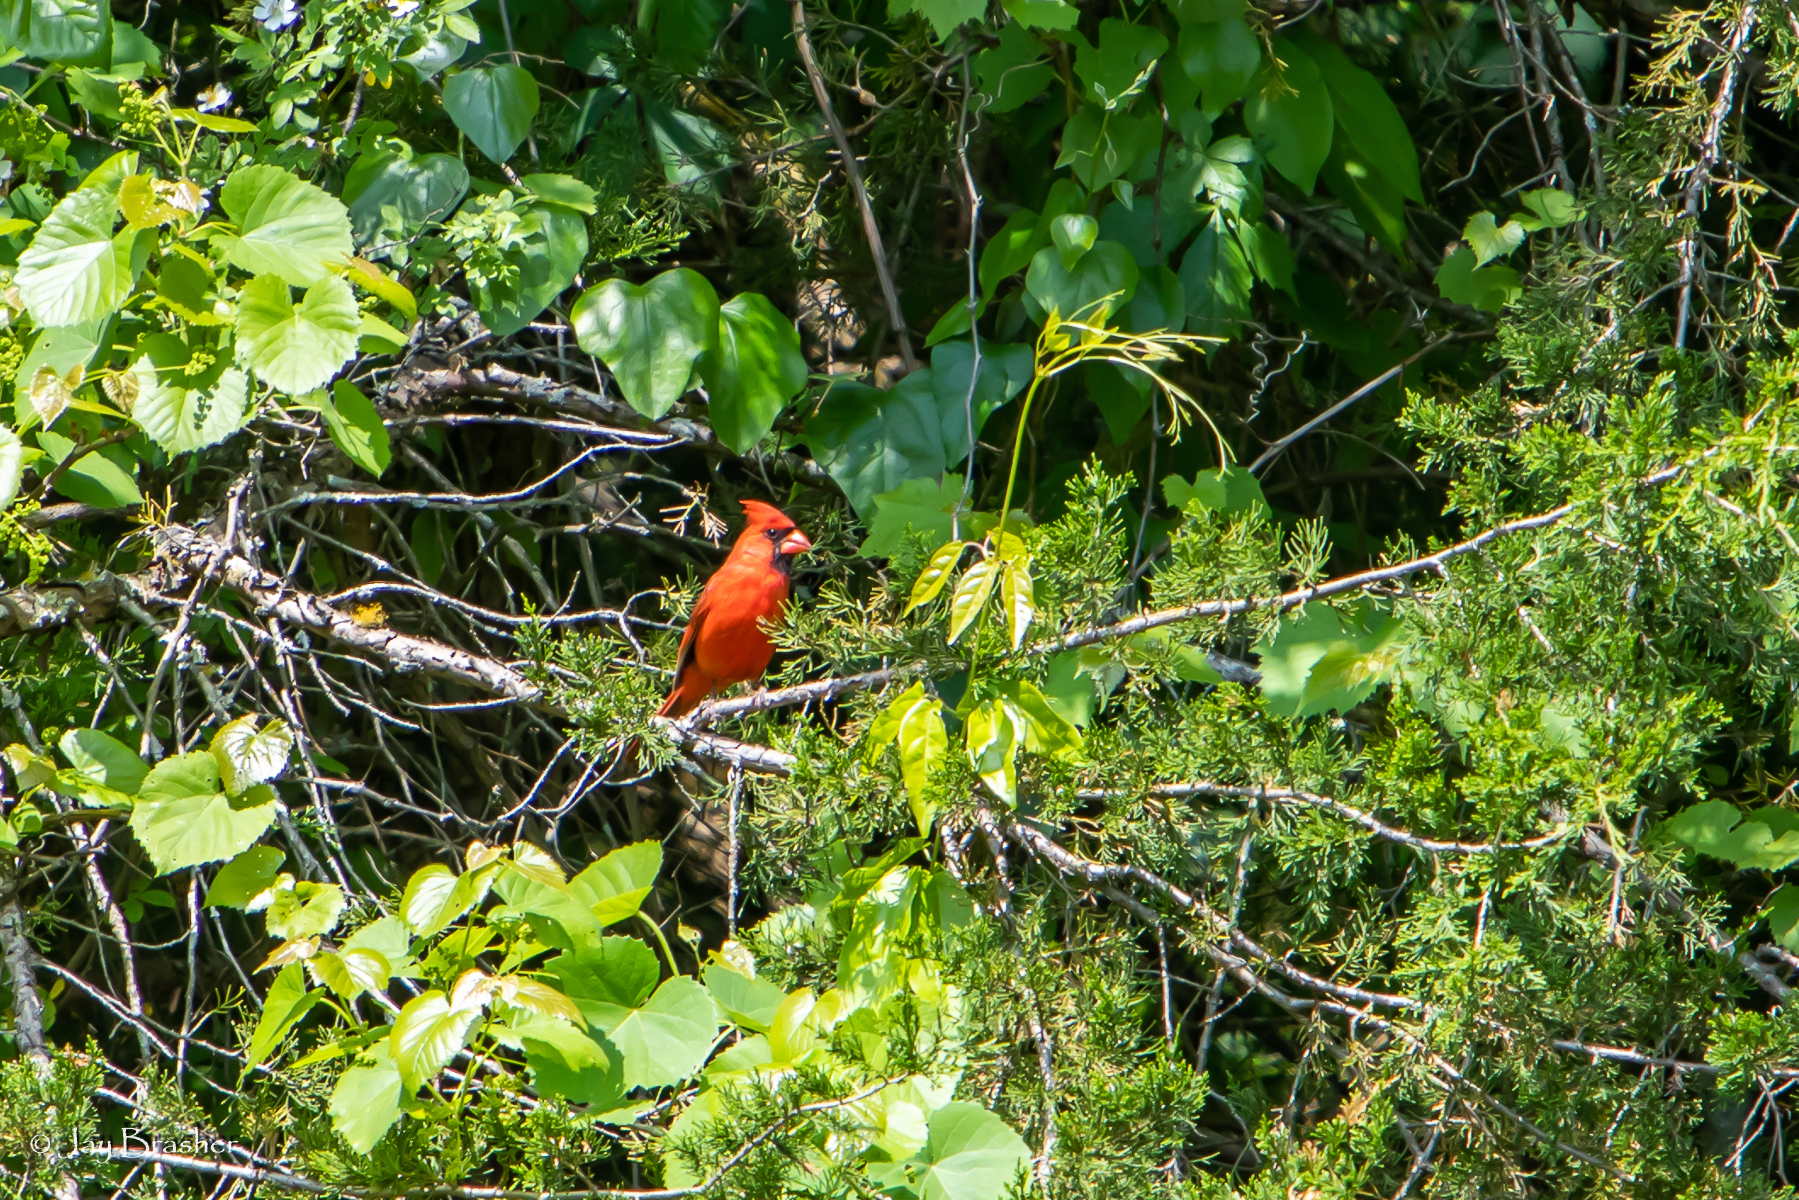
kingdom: Animalia
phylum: Chordata
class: Aves
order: Passeriformes
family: Cardinalidae
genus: Cardinalis
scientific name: Cardinalis cardinalis
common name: Northern cardinal
